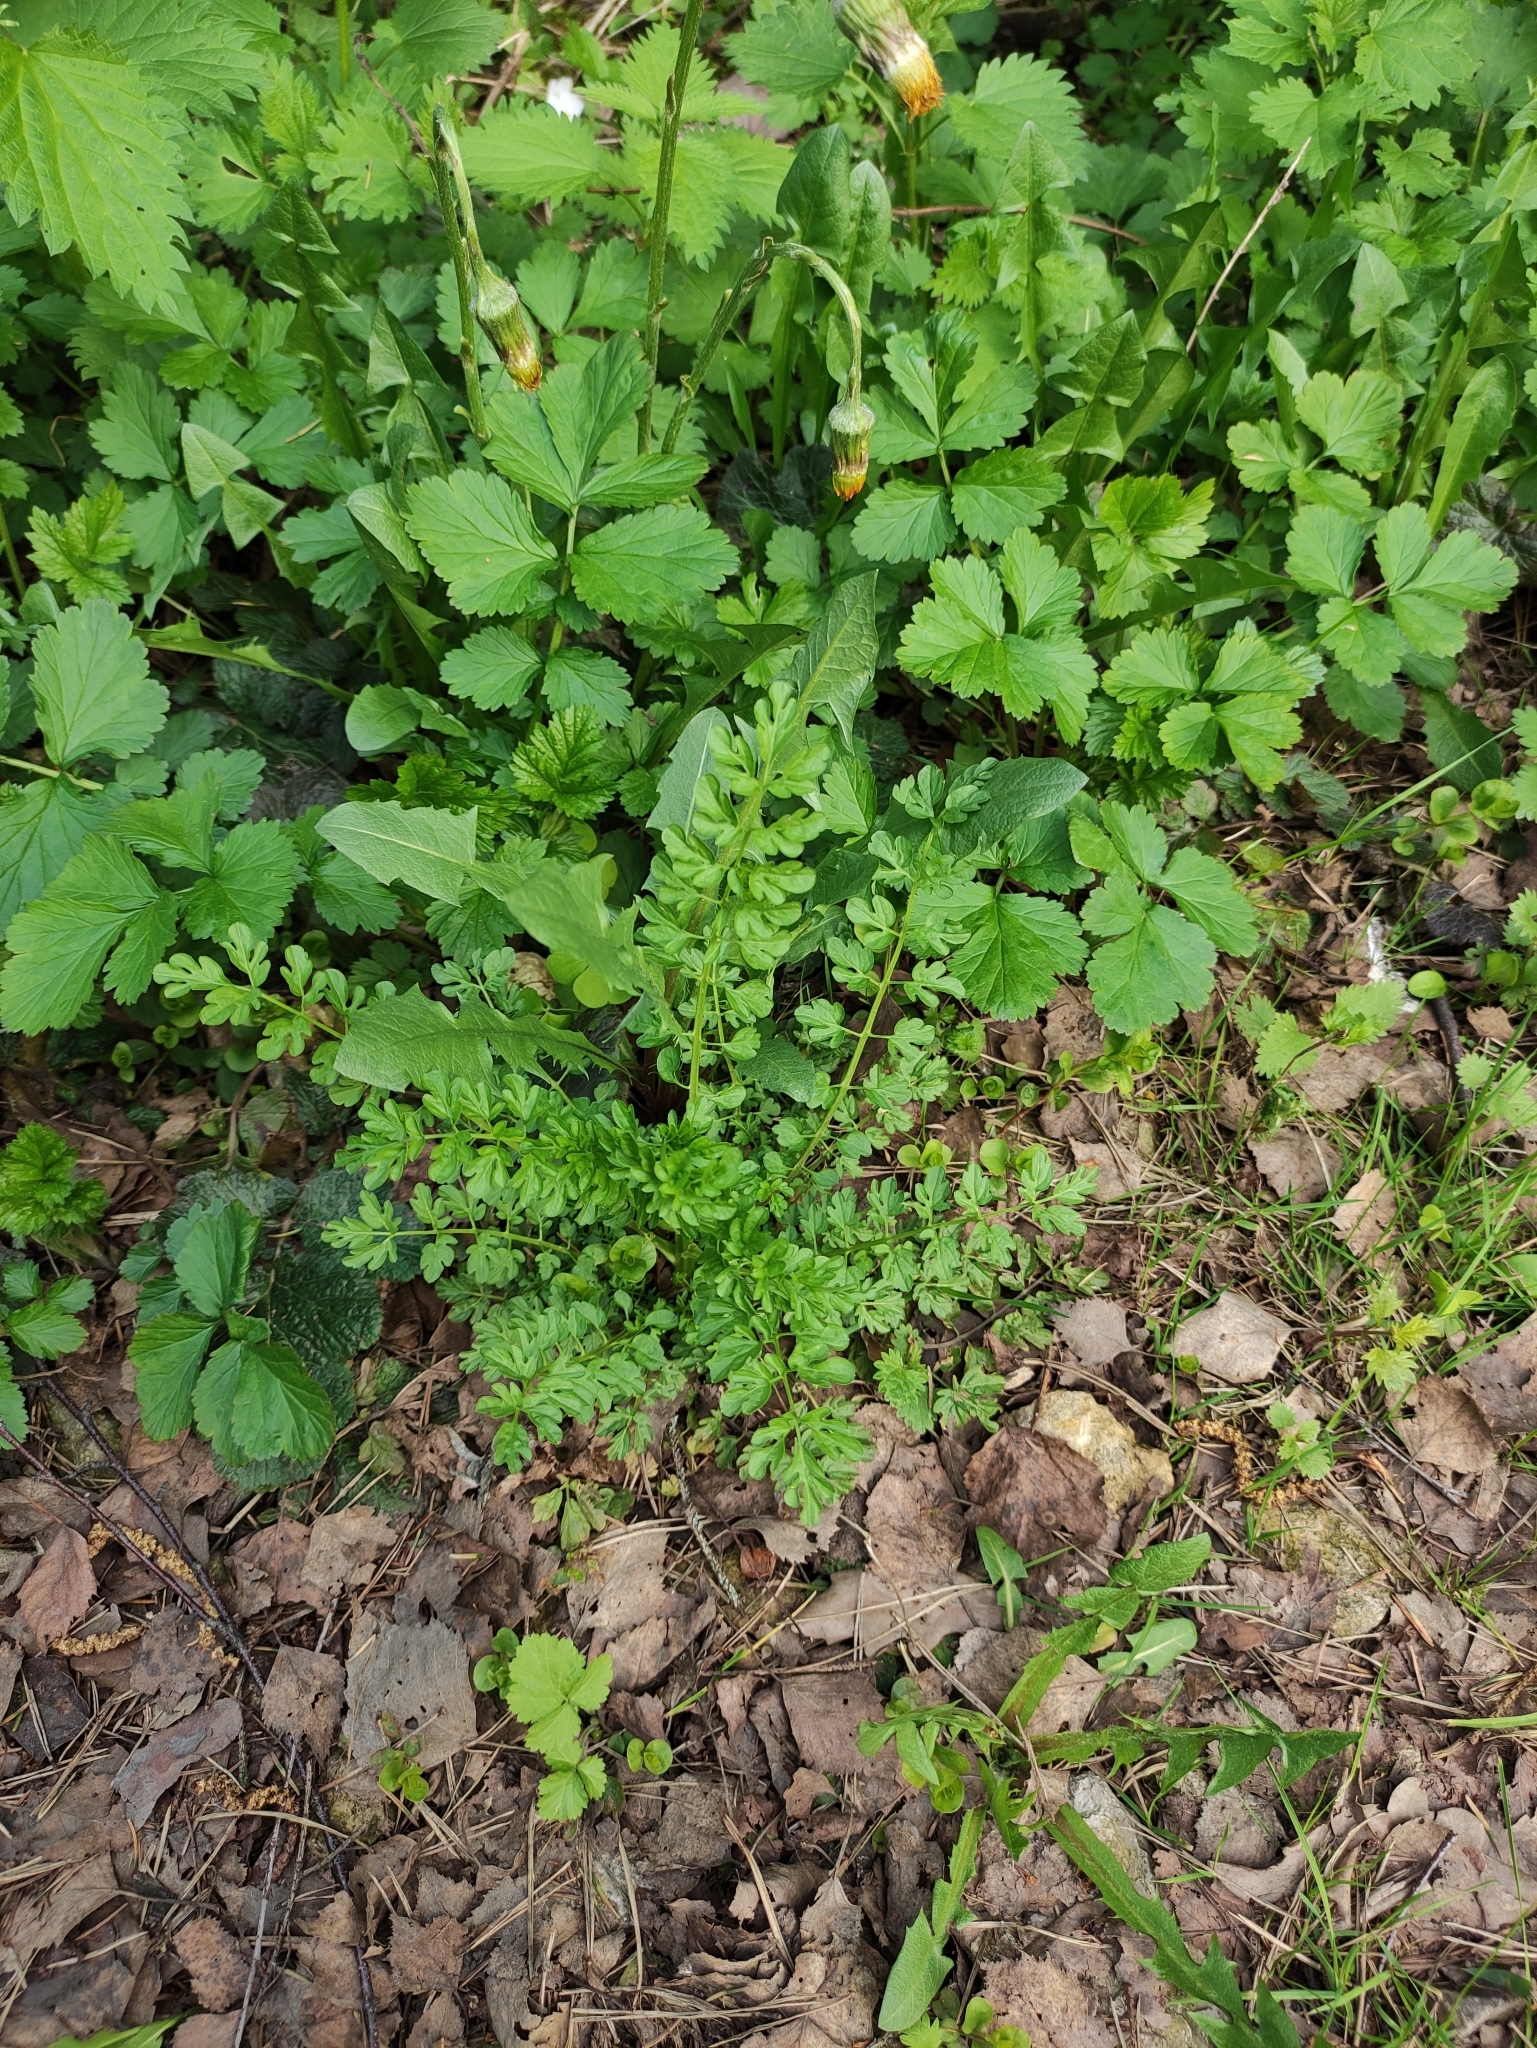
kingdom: Plantae
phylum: Tracheophyta
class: Magnoliopsida
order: Brassicales
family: Brassicaceae
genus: Cardamine
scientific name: Cardamine impatiens
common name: Narrow-leaved bitter-cress
